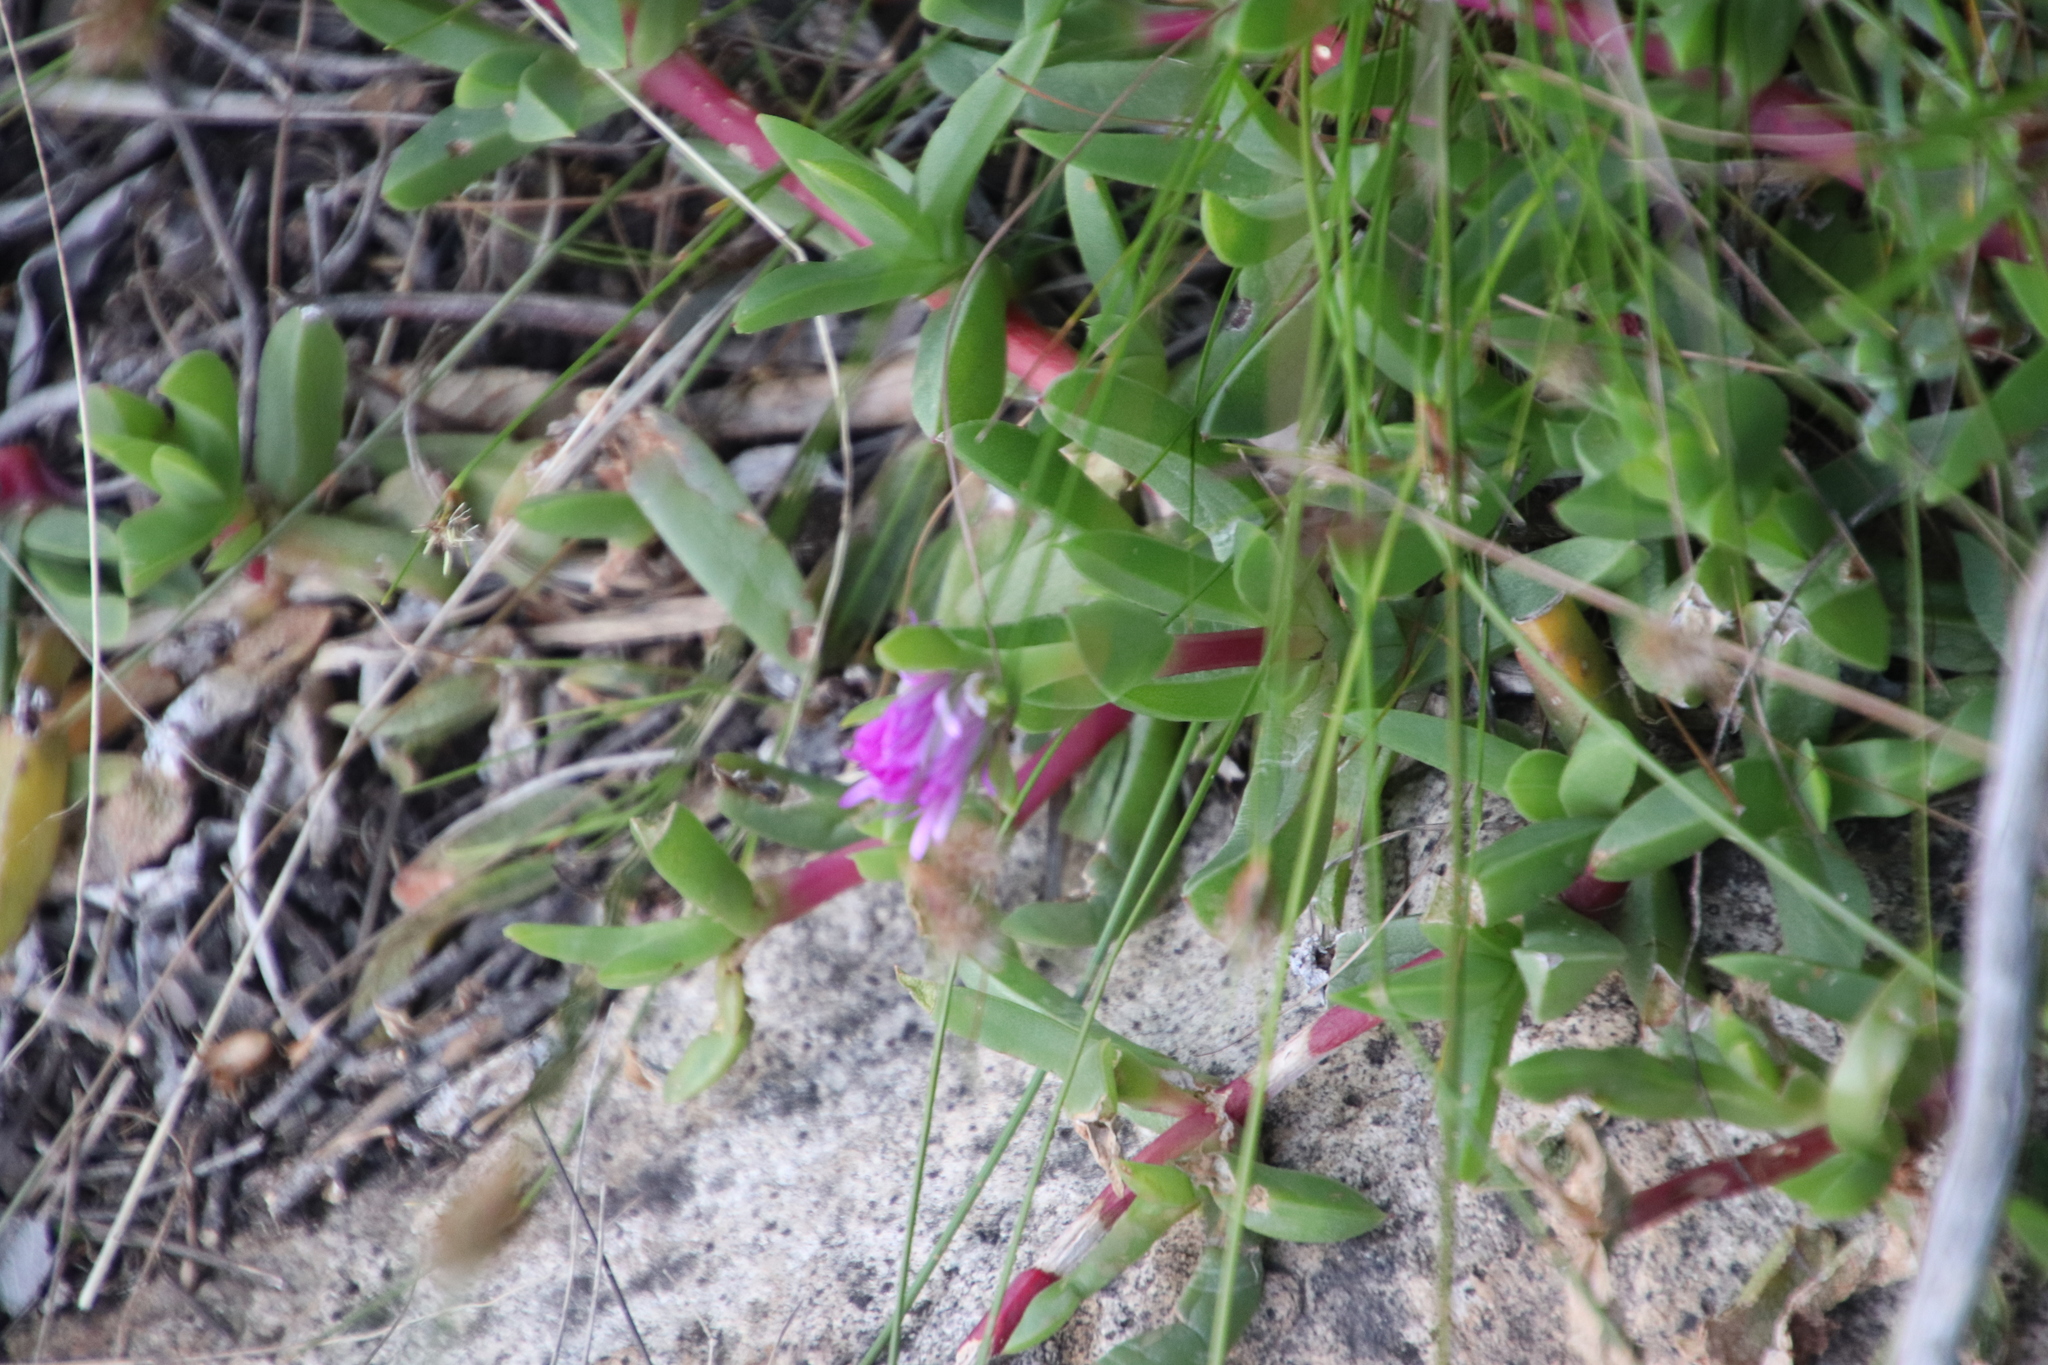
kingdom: Plantae
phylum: Tracheophyta
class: Magnoliopsida
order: Caryophyllales
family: Aizoaceae
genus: Ruschia
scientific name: Ruschia rubricaulis
